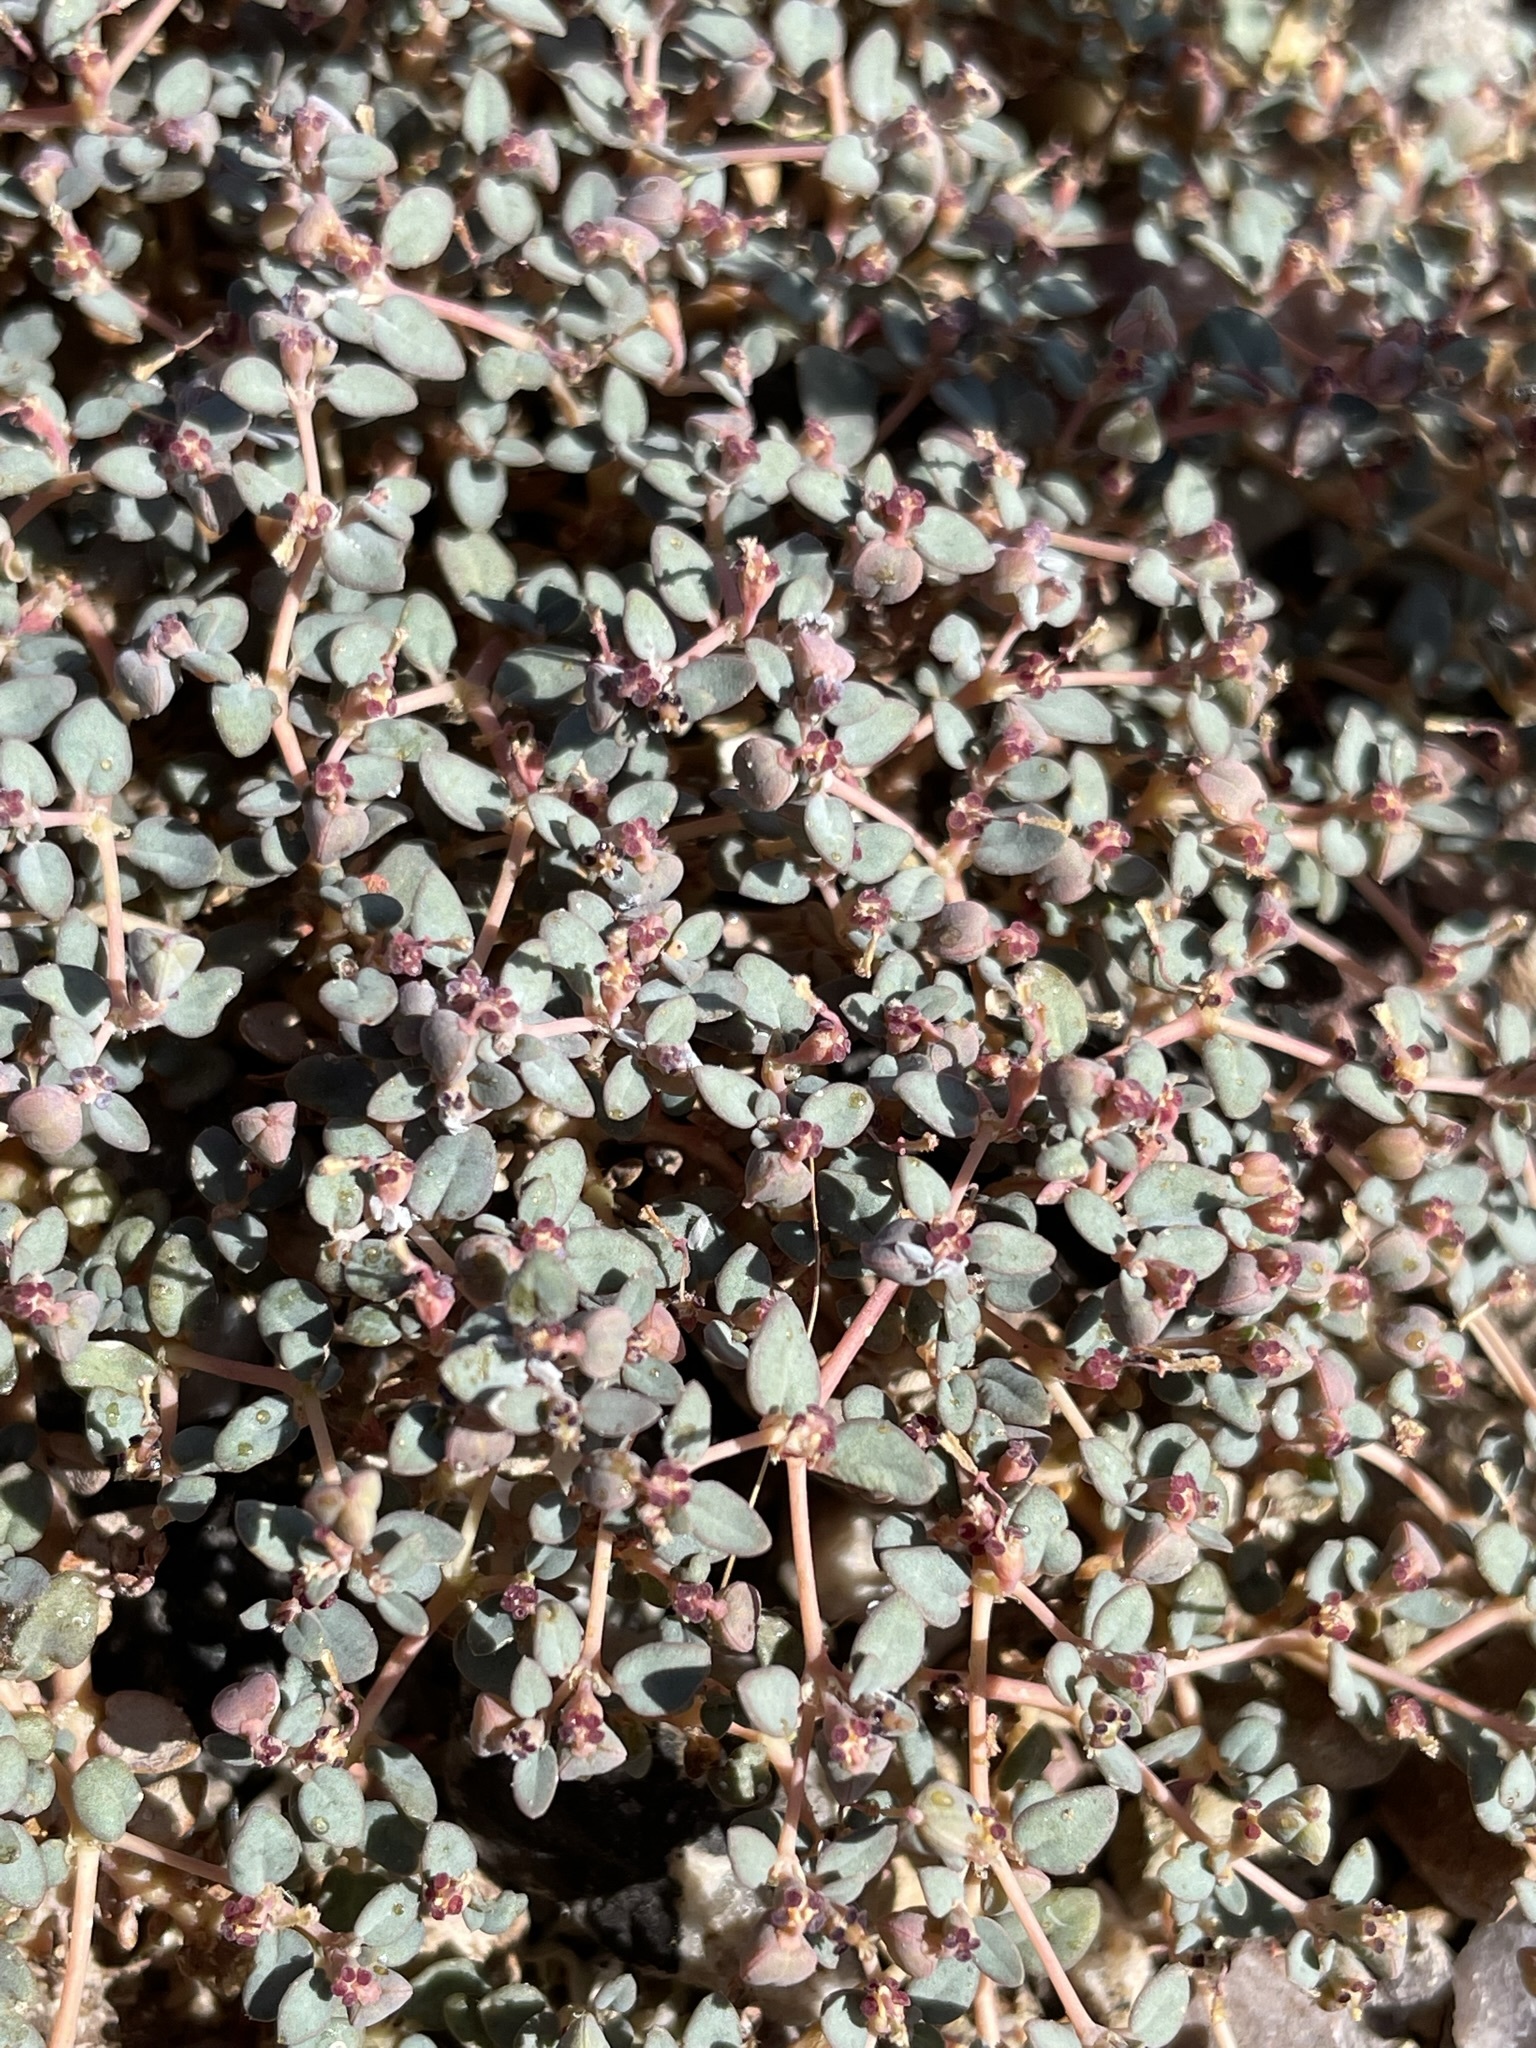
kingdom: Plantae
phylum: Tracheophyta
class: Magnoliopsida
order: Malpighiales
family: Euphorbiaceae
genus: Euphorbia
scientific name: Euphorbia parishii
